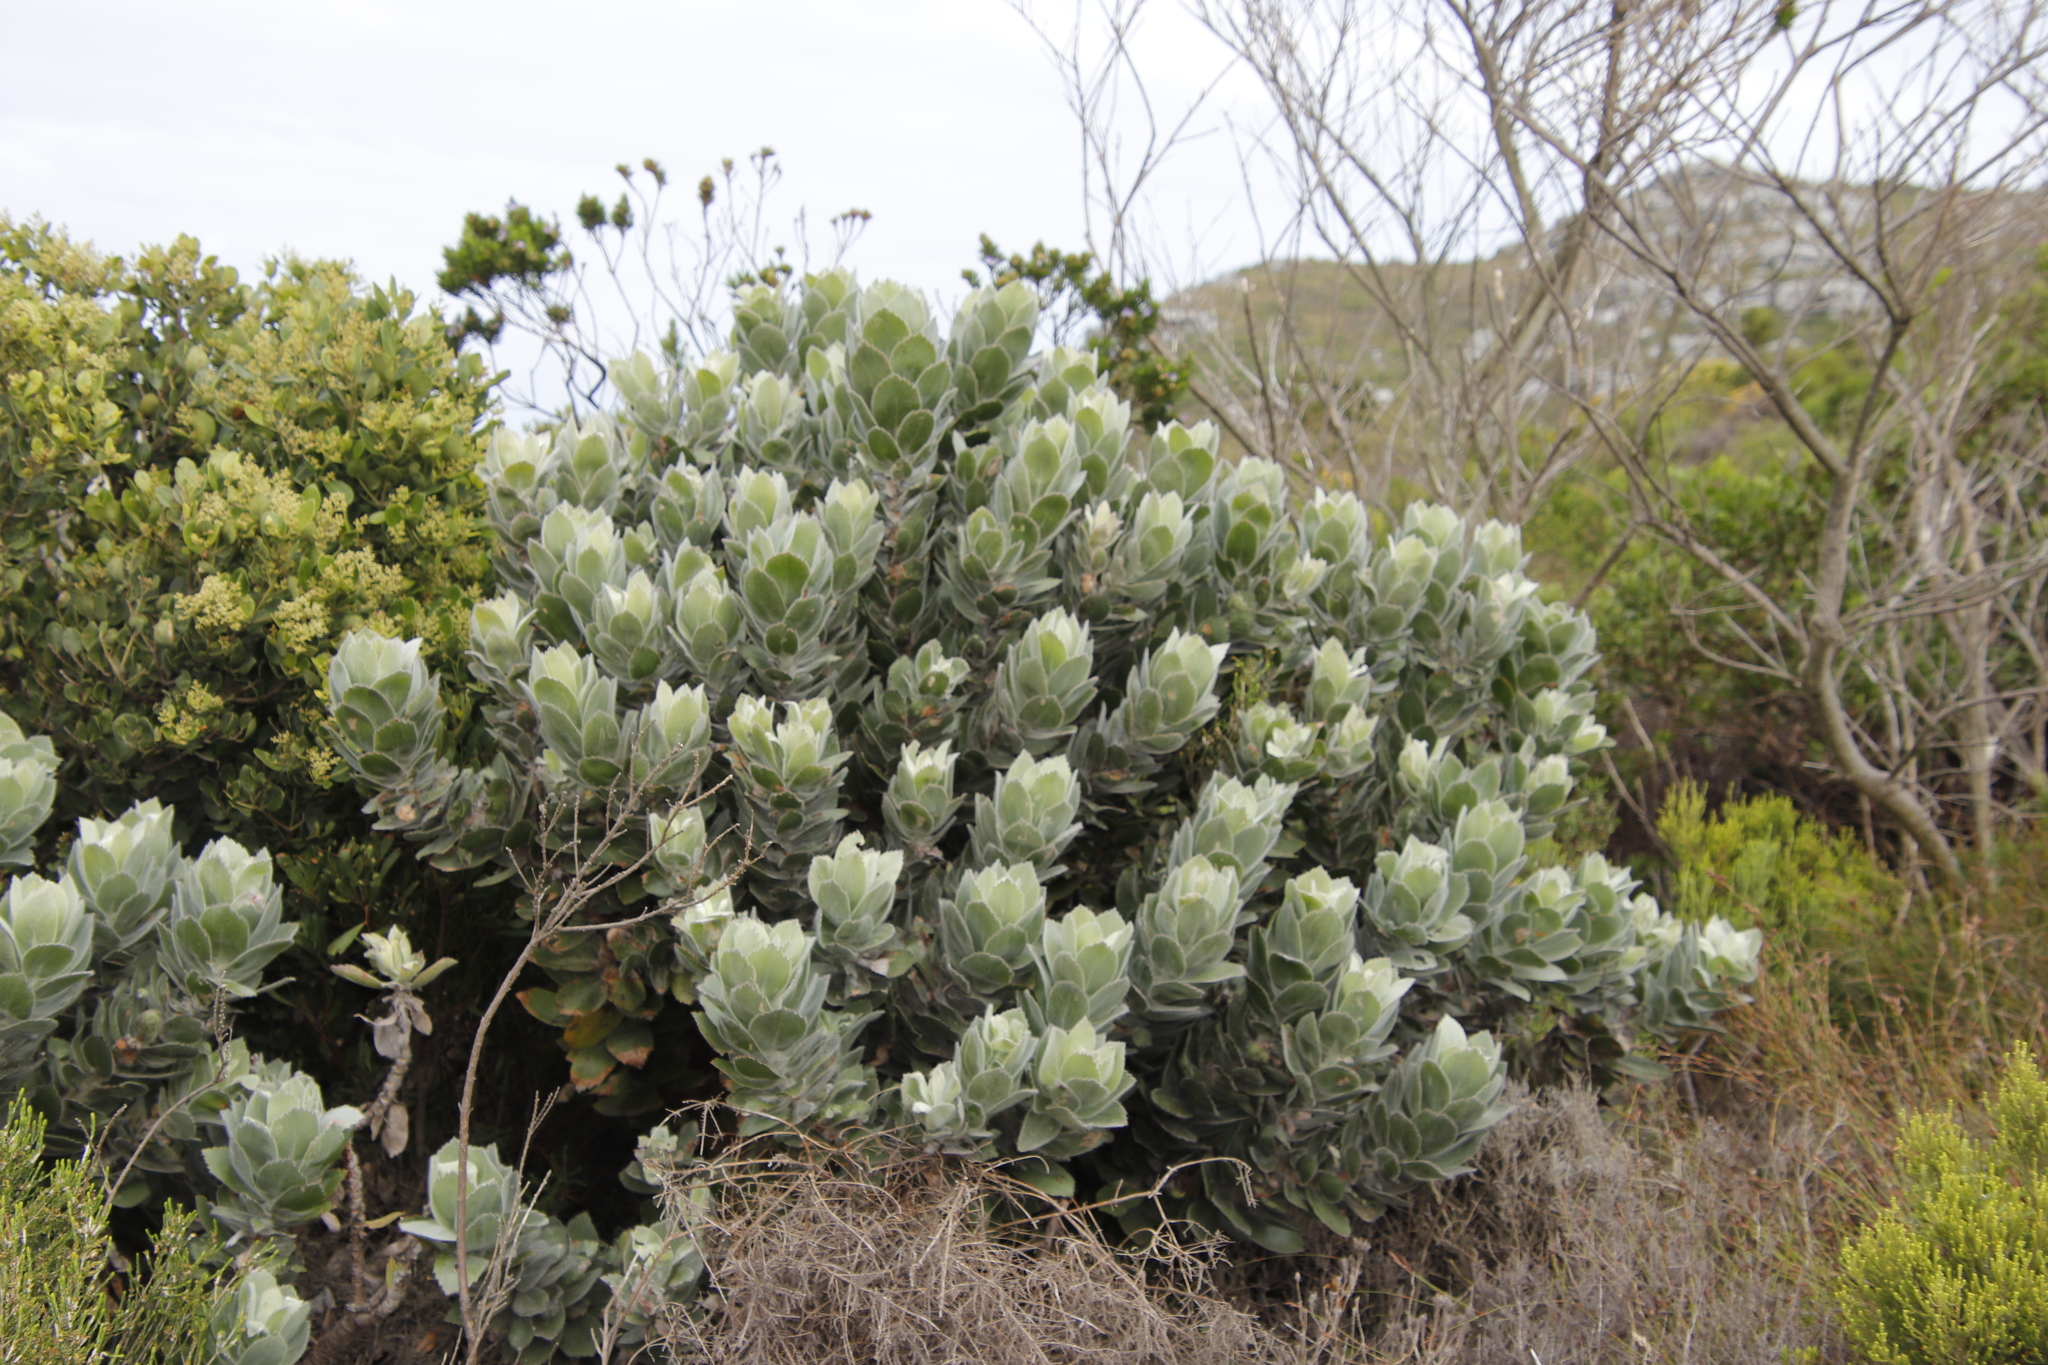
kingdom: Plantae
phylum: Tracheophyta
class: Magnoliopsida
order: Proteales
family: Proteaceae
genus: Leucospermum
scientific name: Leucospermum conocarpodendron
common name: Tree pincushion
